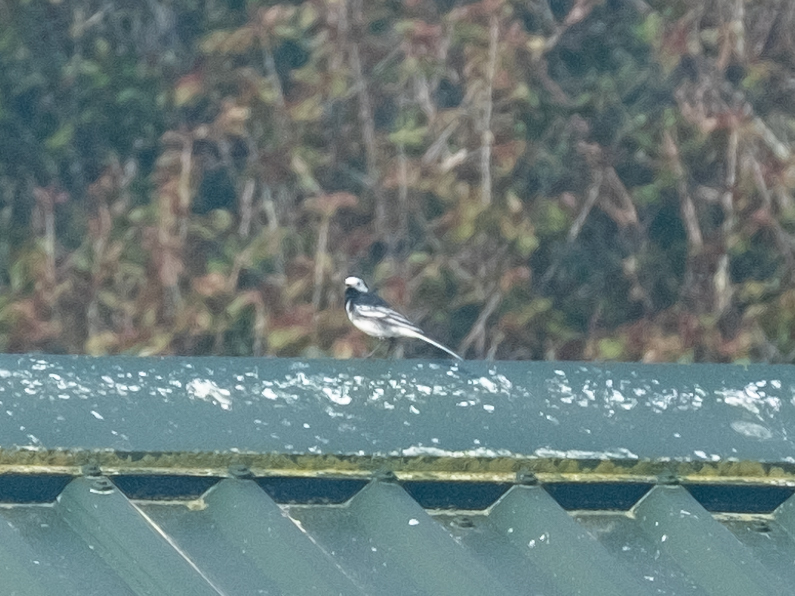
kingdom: Animalia
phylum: Chordata
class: Aves
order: Passeriformes
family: Motacillidae
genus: Motacilla
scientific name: Motacilla alba
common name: White wagtail
